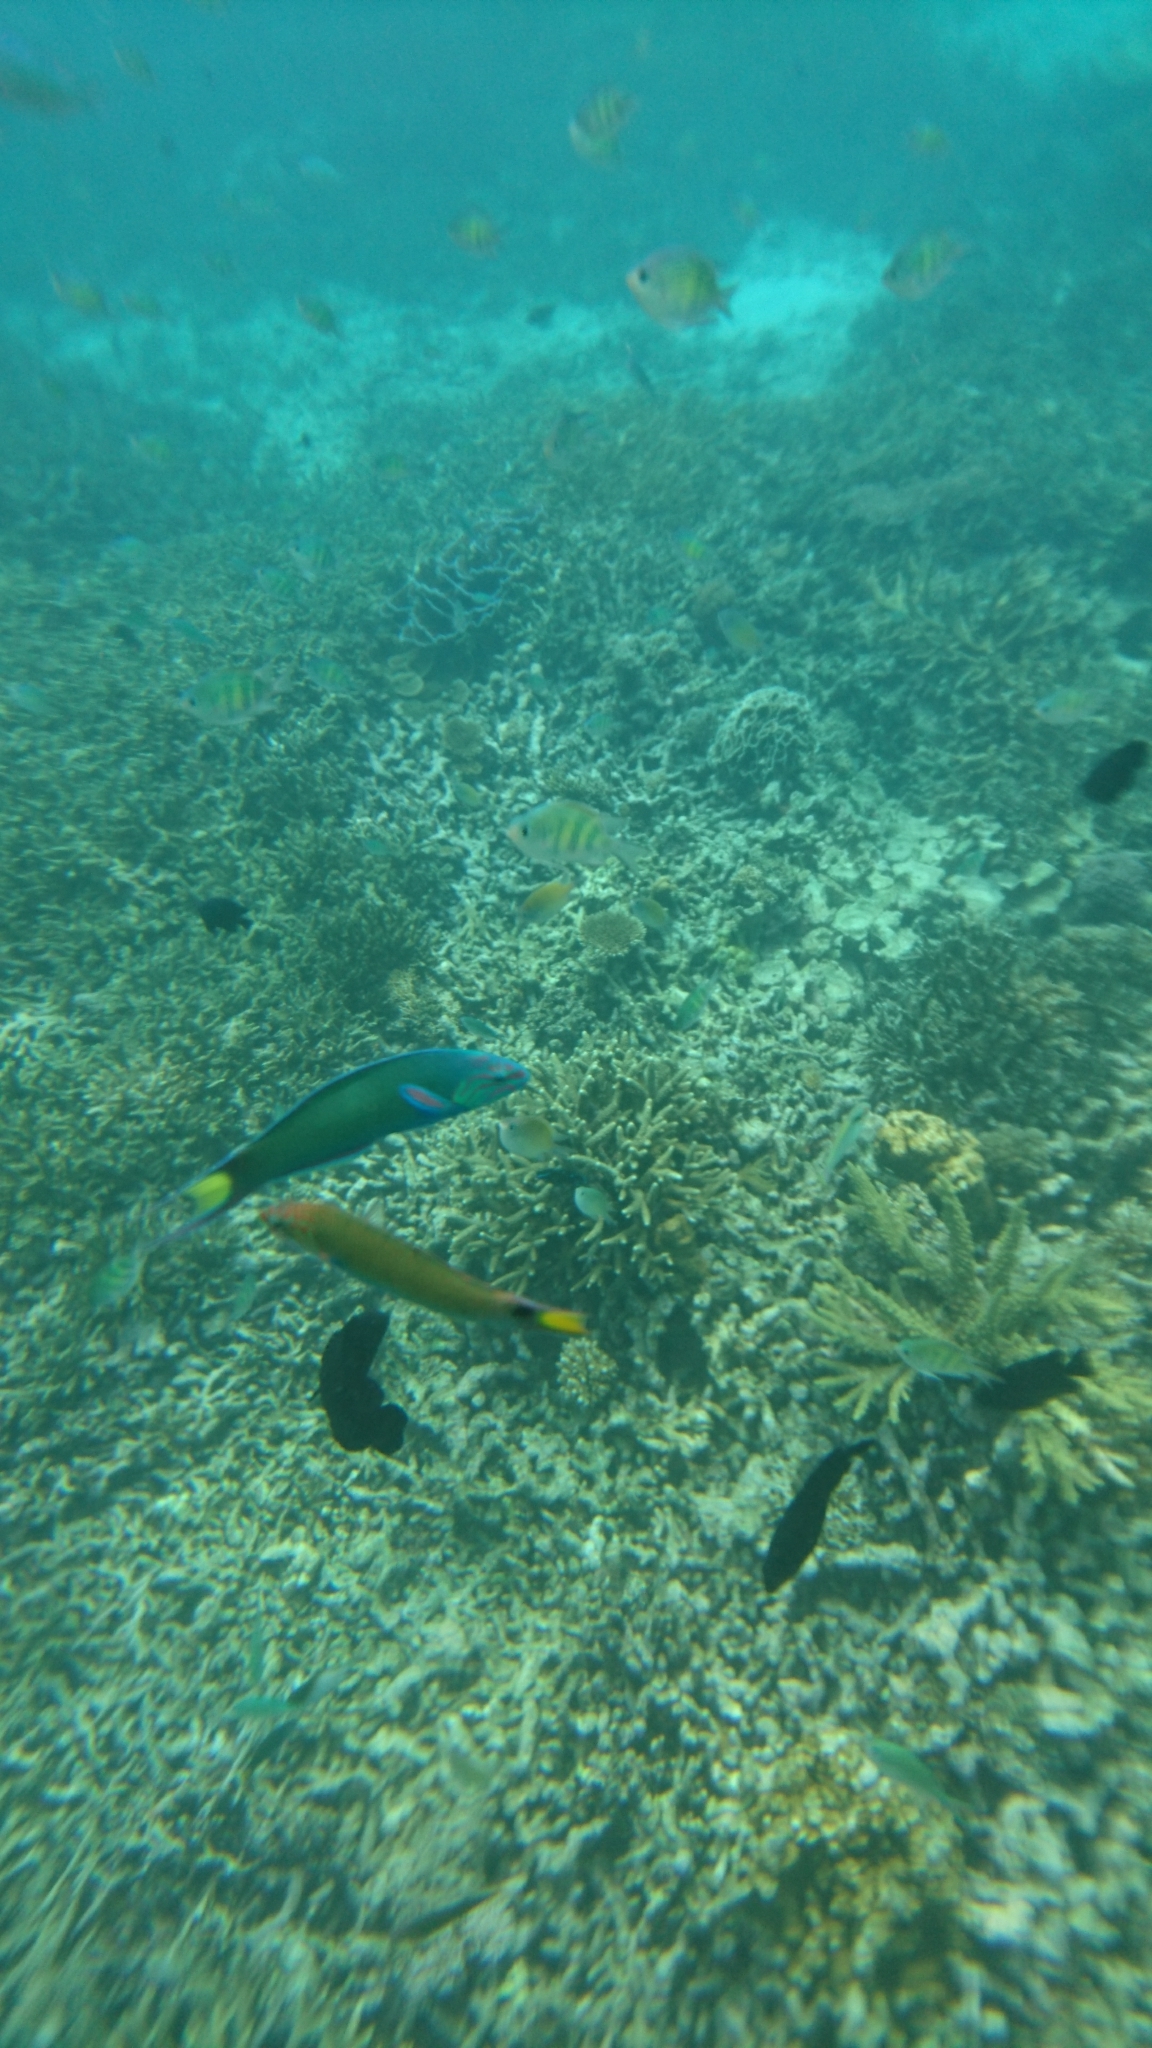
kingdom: Animalia
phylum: Chordata
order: Perciformes
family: Pomacentridae
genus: Amblyglyphidodon
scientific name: Amblyglyphidodon curacao
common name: Staghorn damsel
